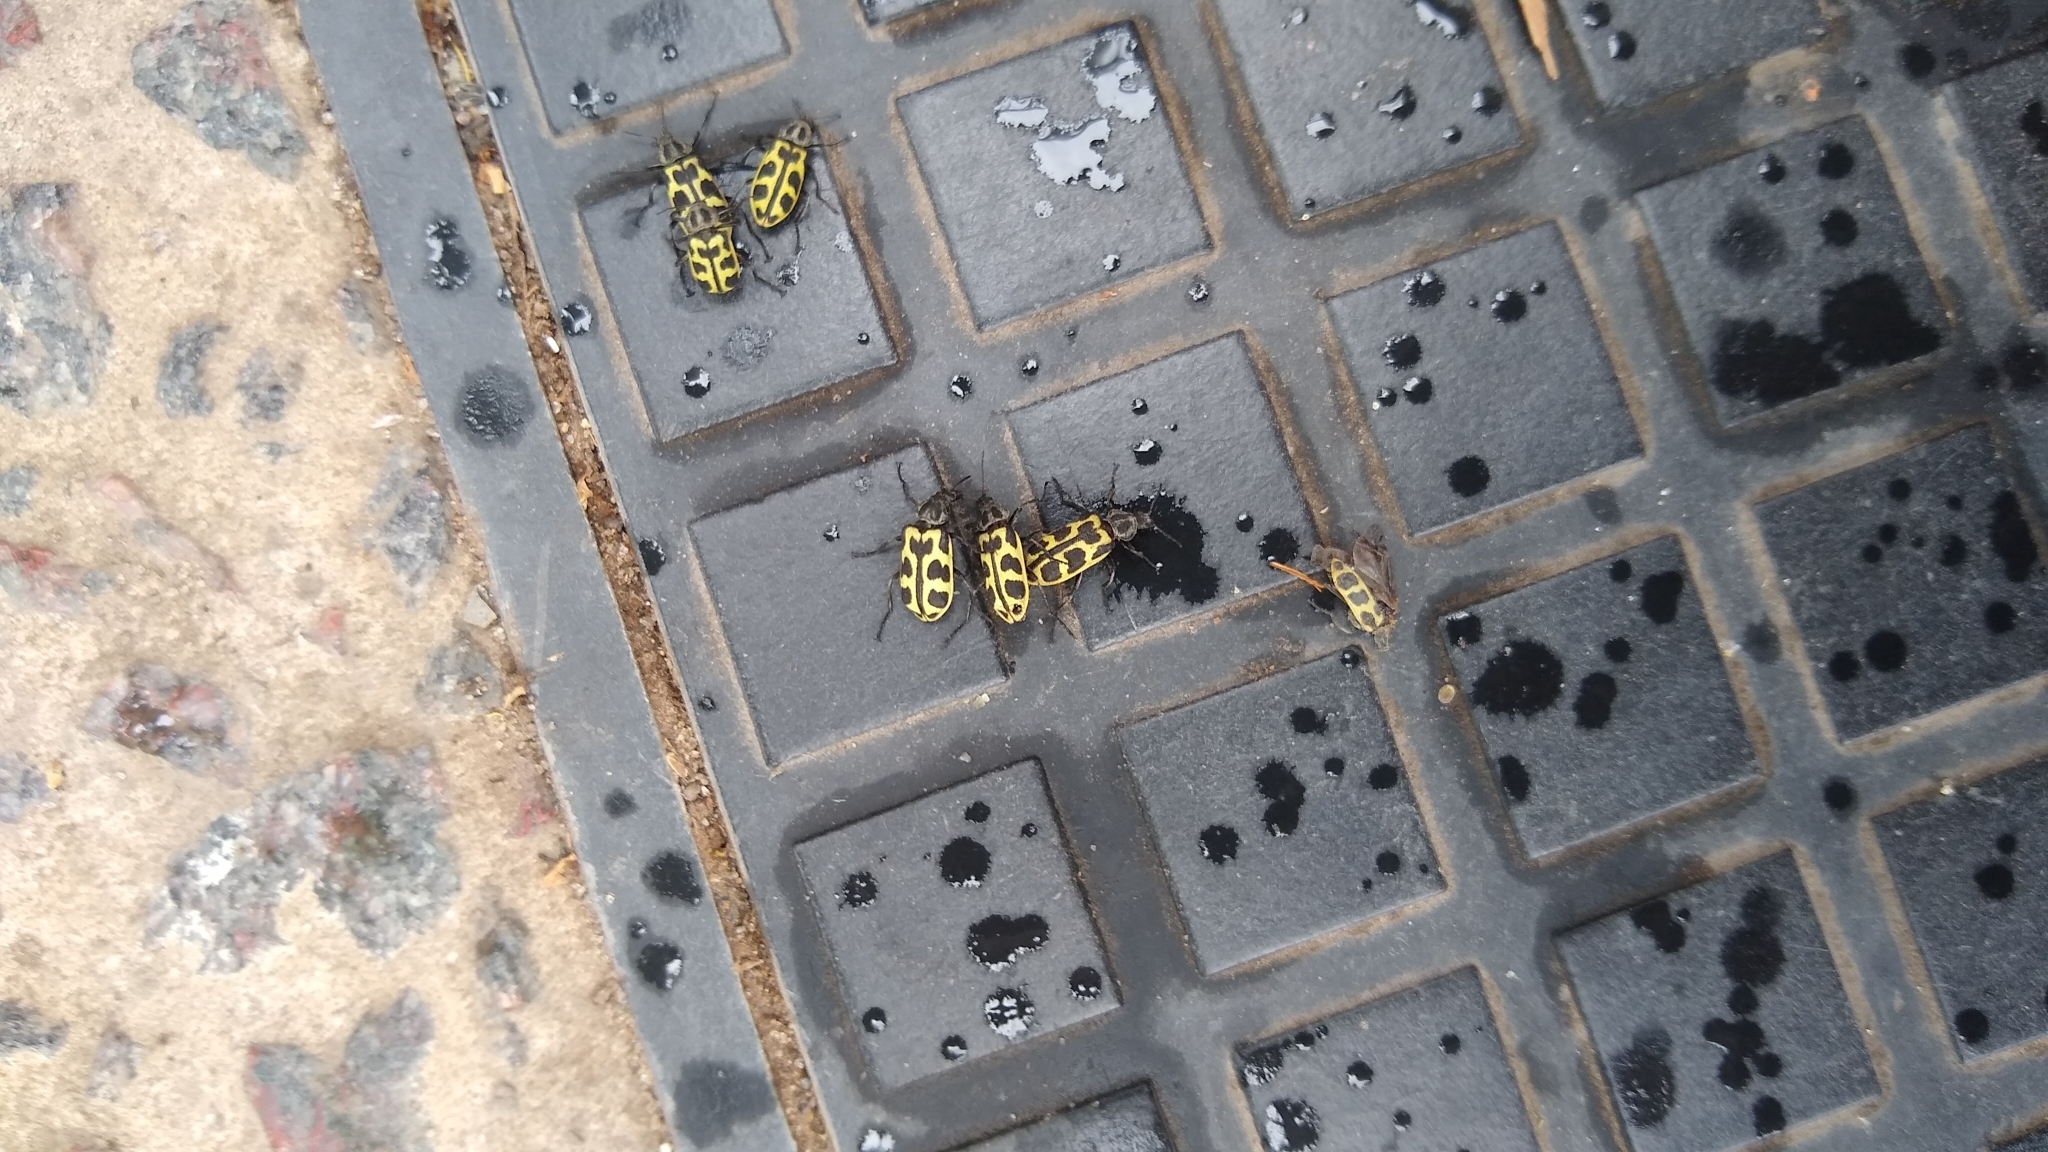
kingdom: Animalia
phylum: Arthropoda
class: Insecta
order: Coleoptera
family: Melyridae
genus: Astylus
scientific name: Astylus atromaculatus
